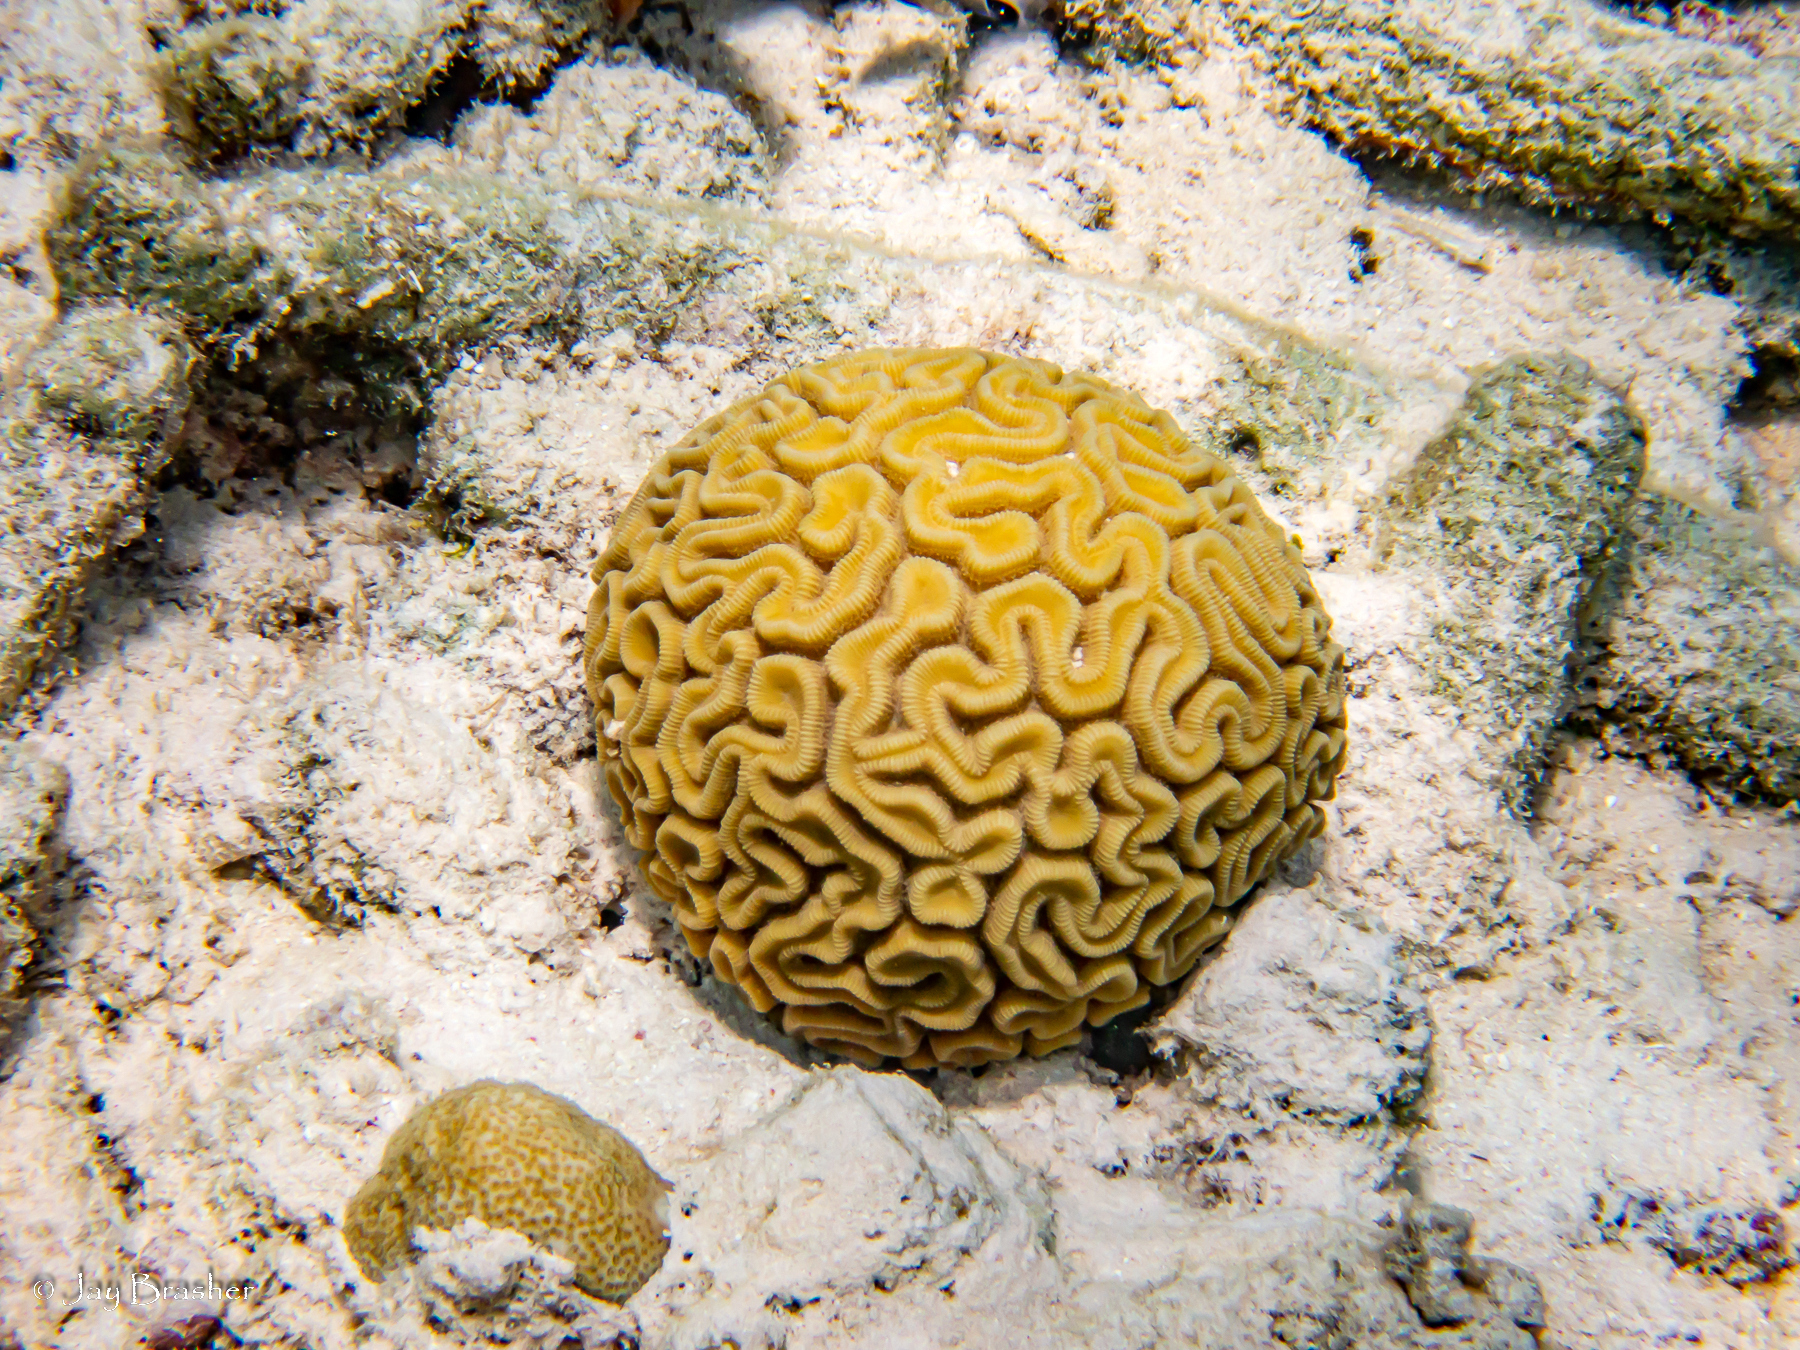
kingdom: Animalia
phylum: Cnidaria
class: Anthozoa
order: Scleractinia
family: Faviidae
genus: Diploria
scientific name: Diploria labyrinthiformis
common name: Grooved brain coral
